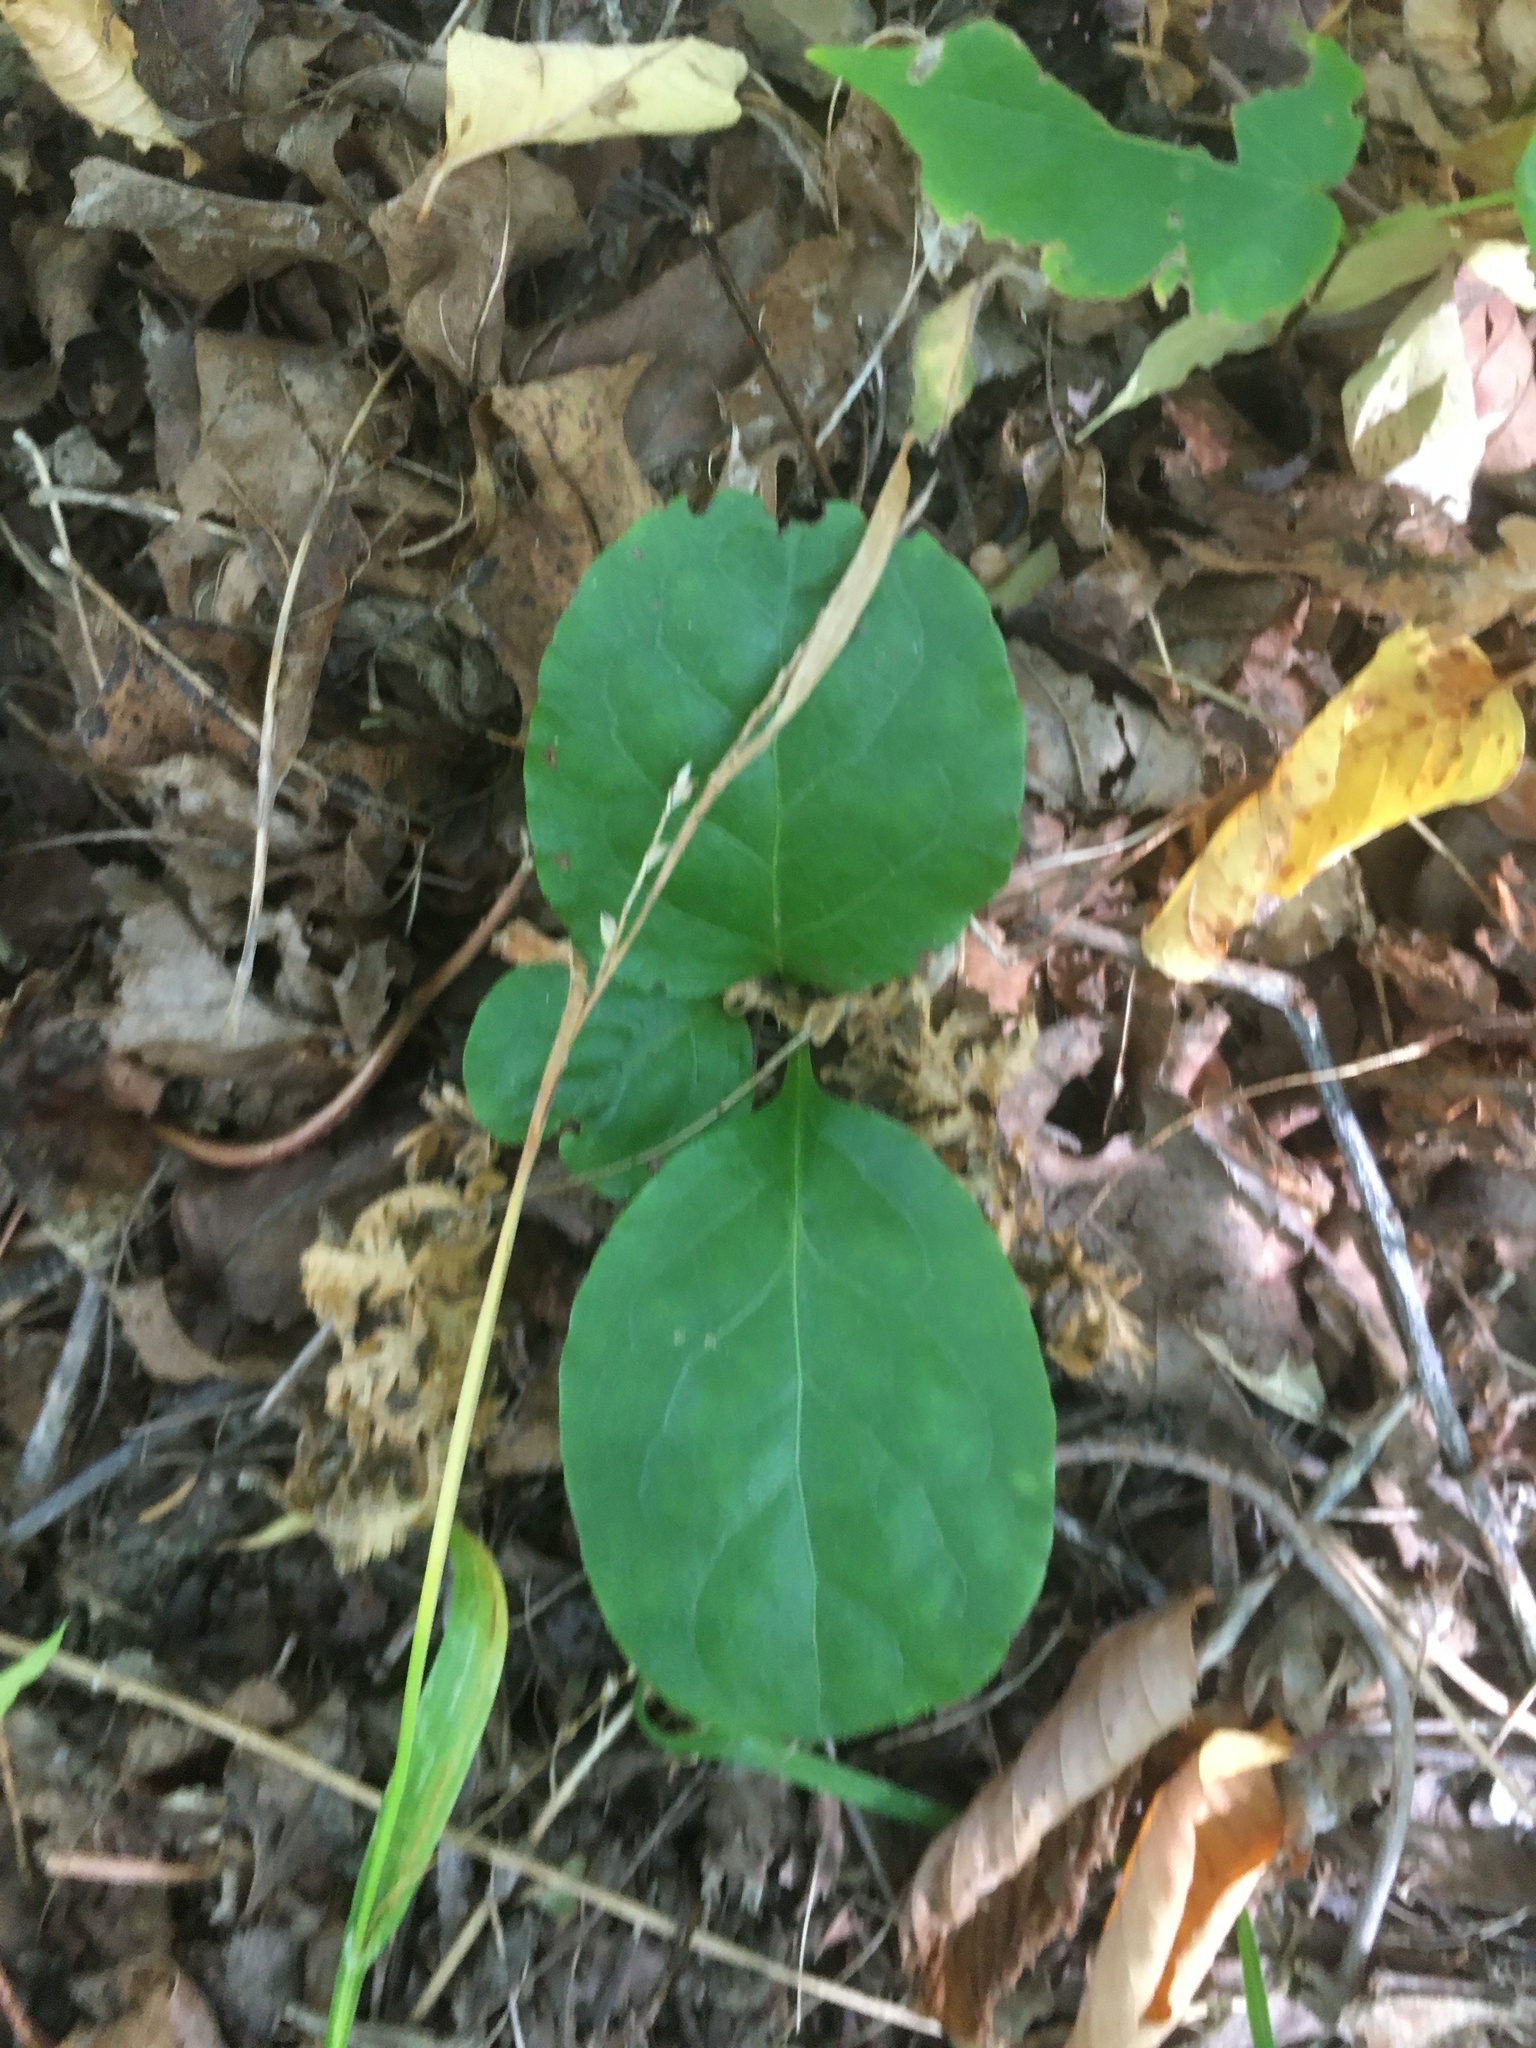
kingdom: Plantae
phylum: Tracheophyta
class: Magnoliopsida
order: Ericales
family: Ericaceae
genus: Pyrola
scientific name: Pyrola elliptica
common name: Shinleaf
